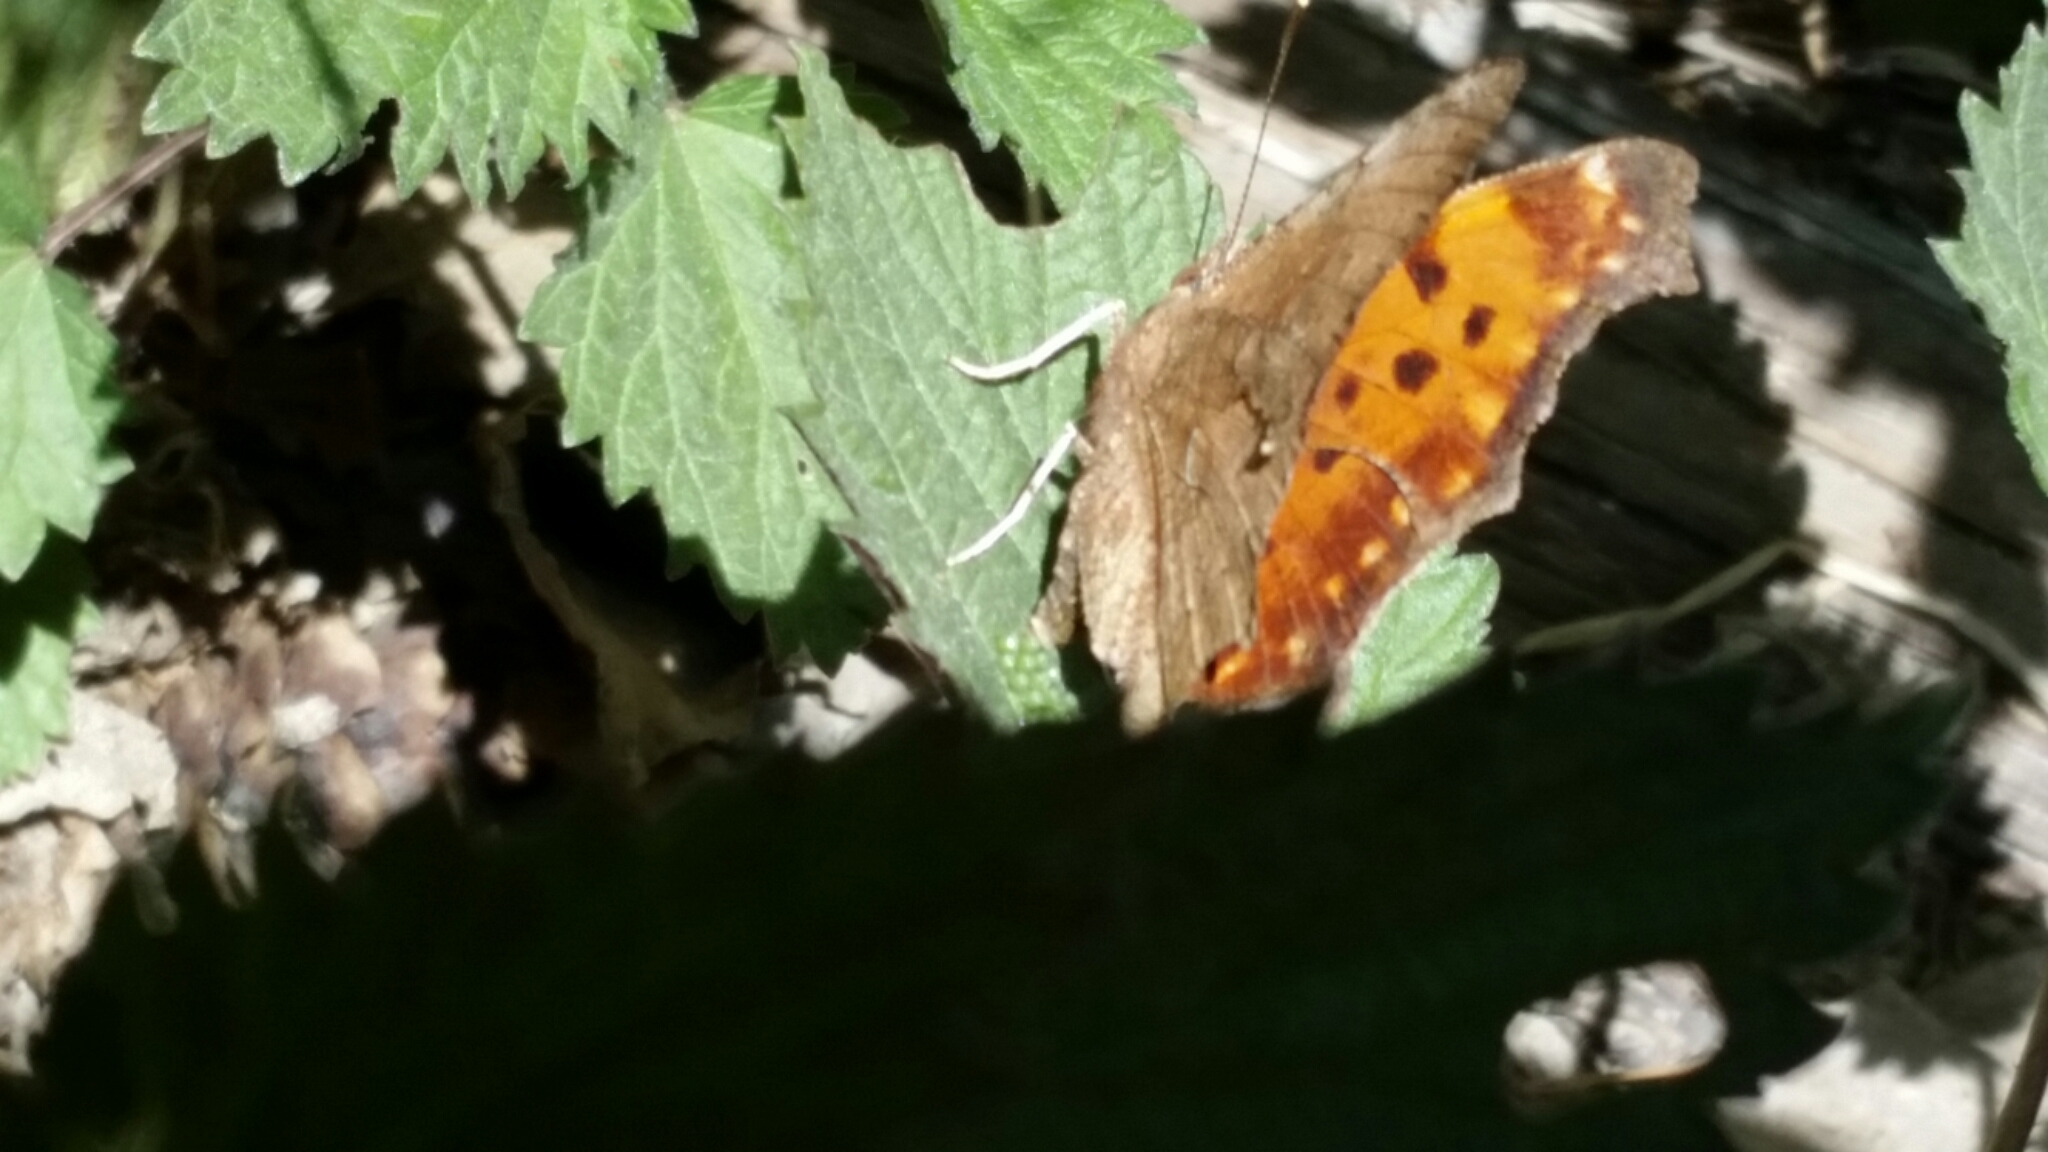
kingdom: Animalia
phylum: Arthropoda
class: Insecta
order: Lepidoptera
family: Nymphalidae
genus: Polygonia
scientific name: Polygonia comma
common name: Eastern comma
